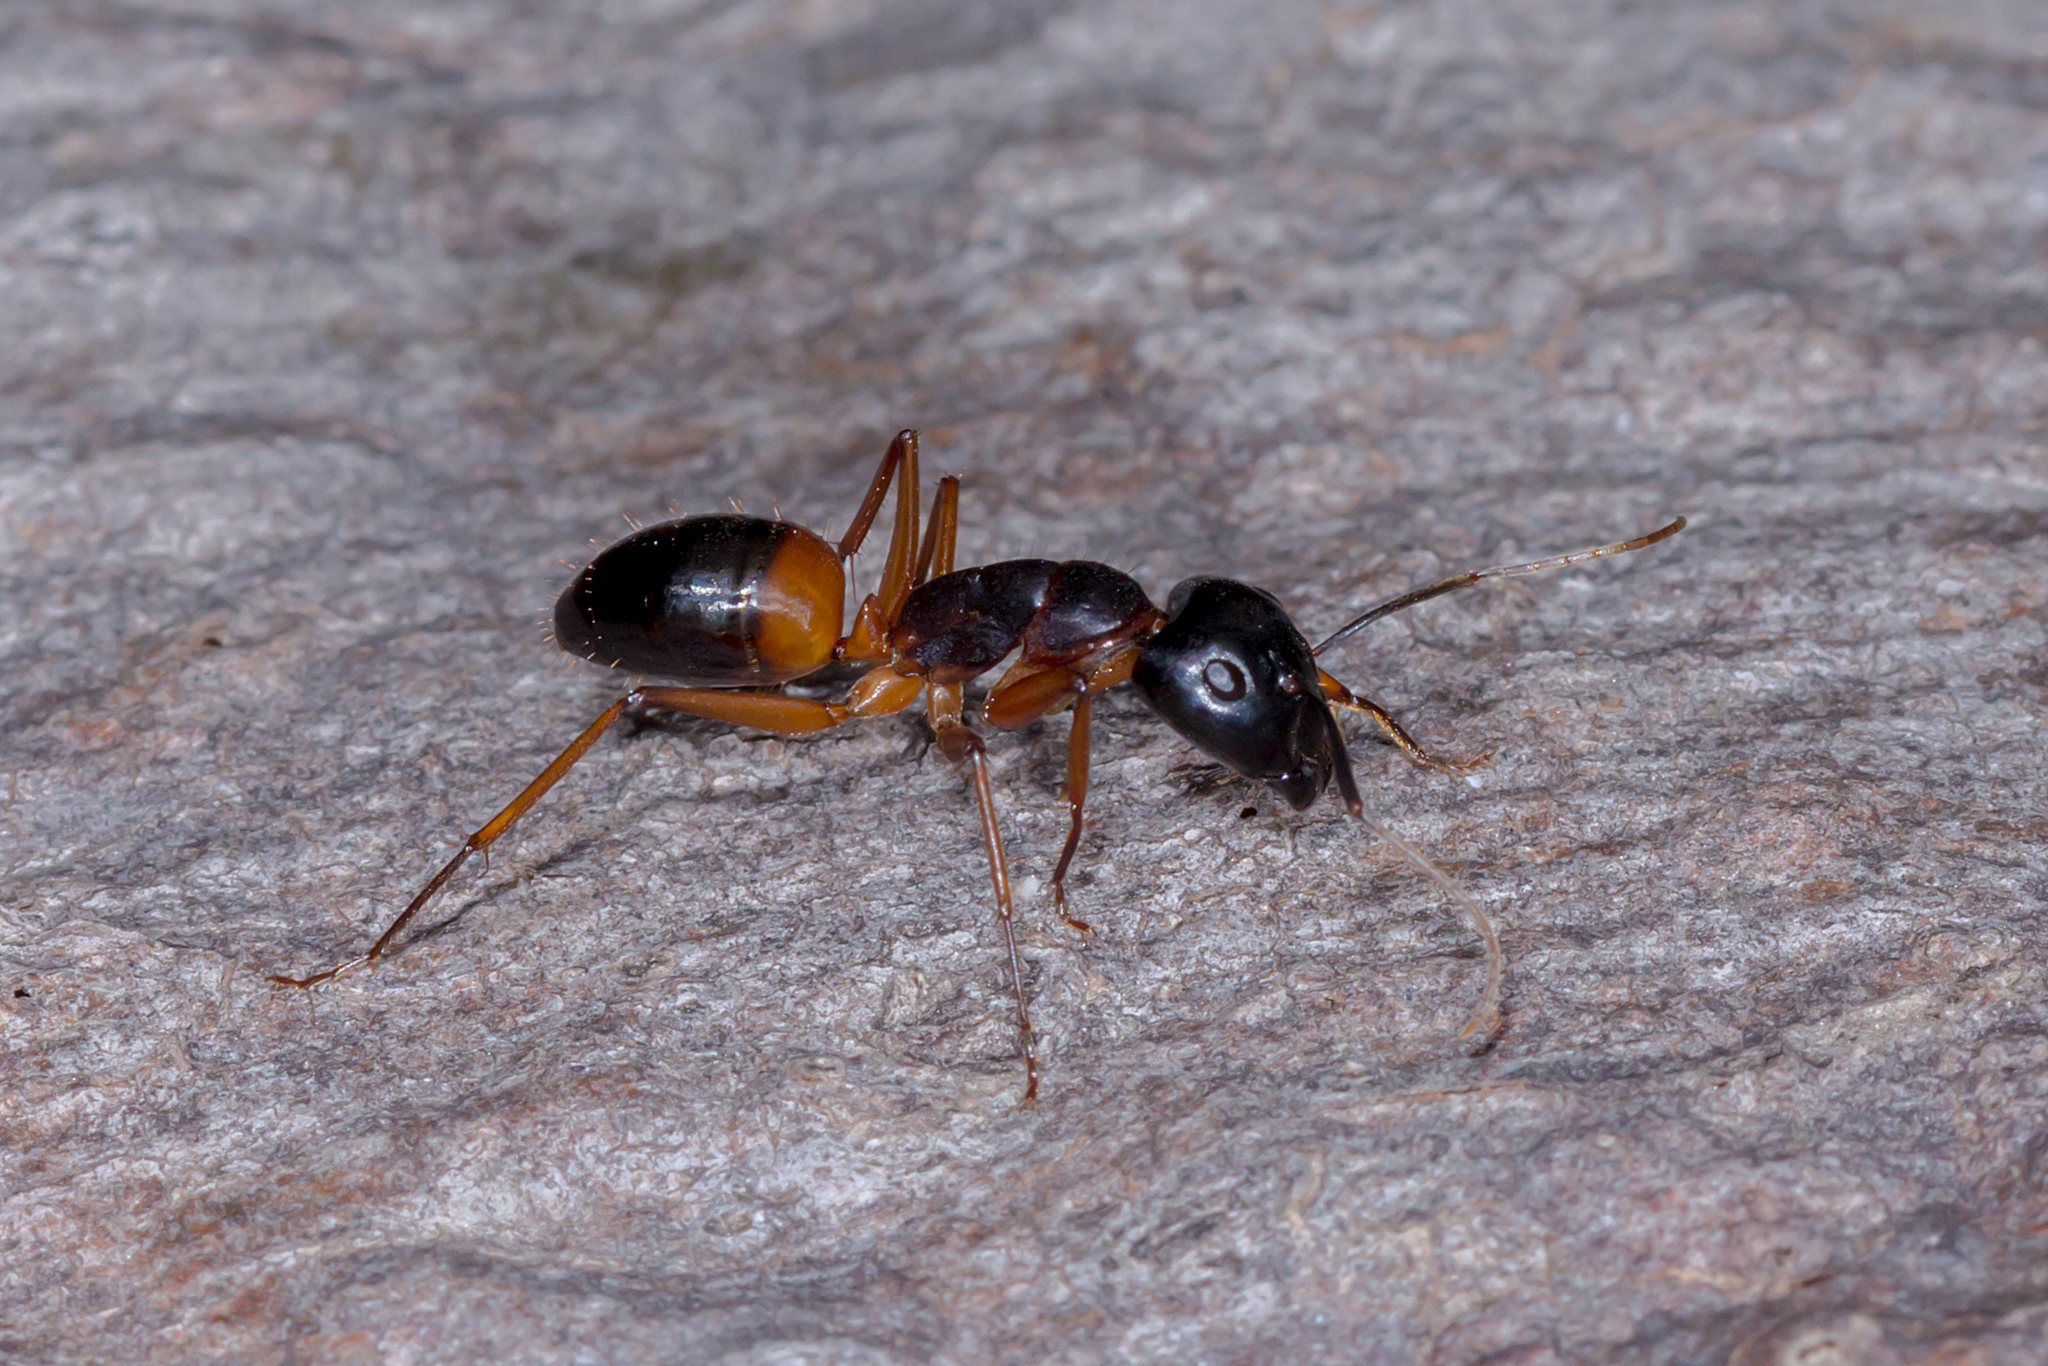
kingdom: Animalia
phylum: Arthropoda
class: Insecta
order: Hymenoptera
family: Formicidae
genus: Camponotus
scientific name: Camponotus consobrinus
